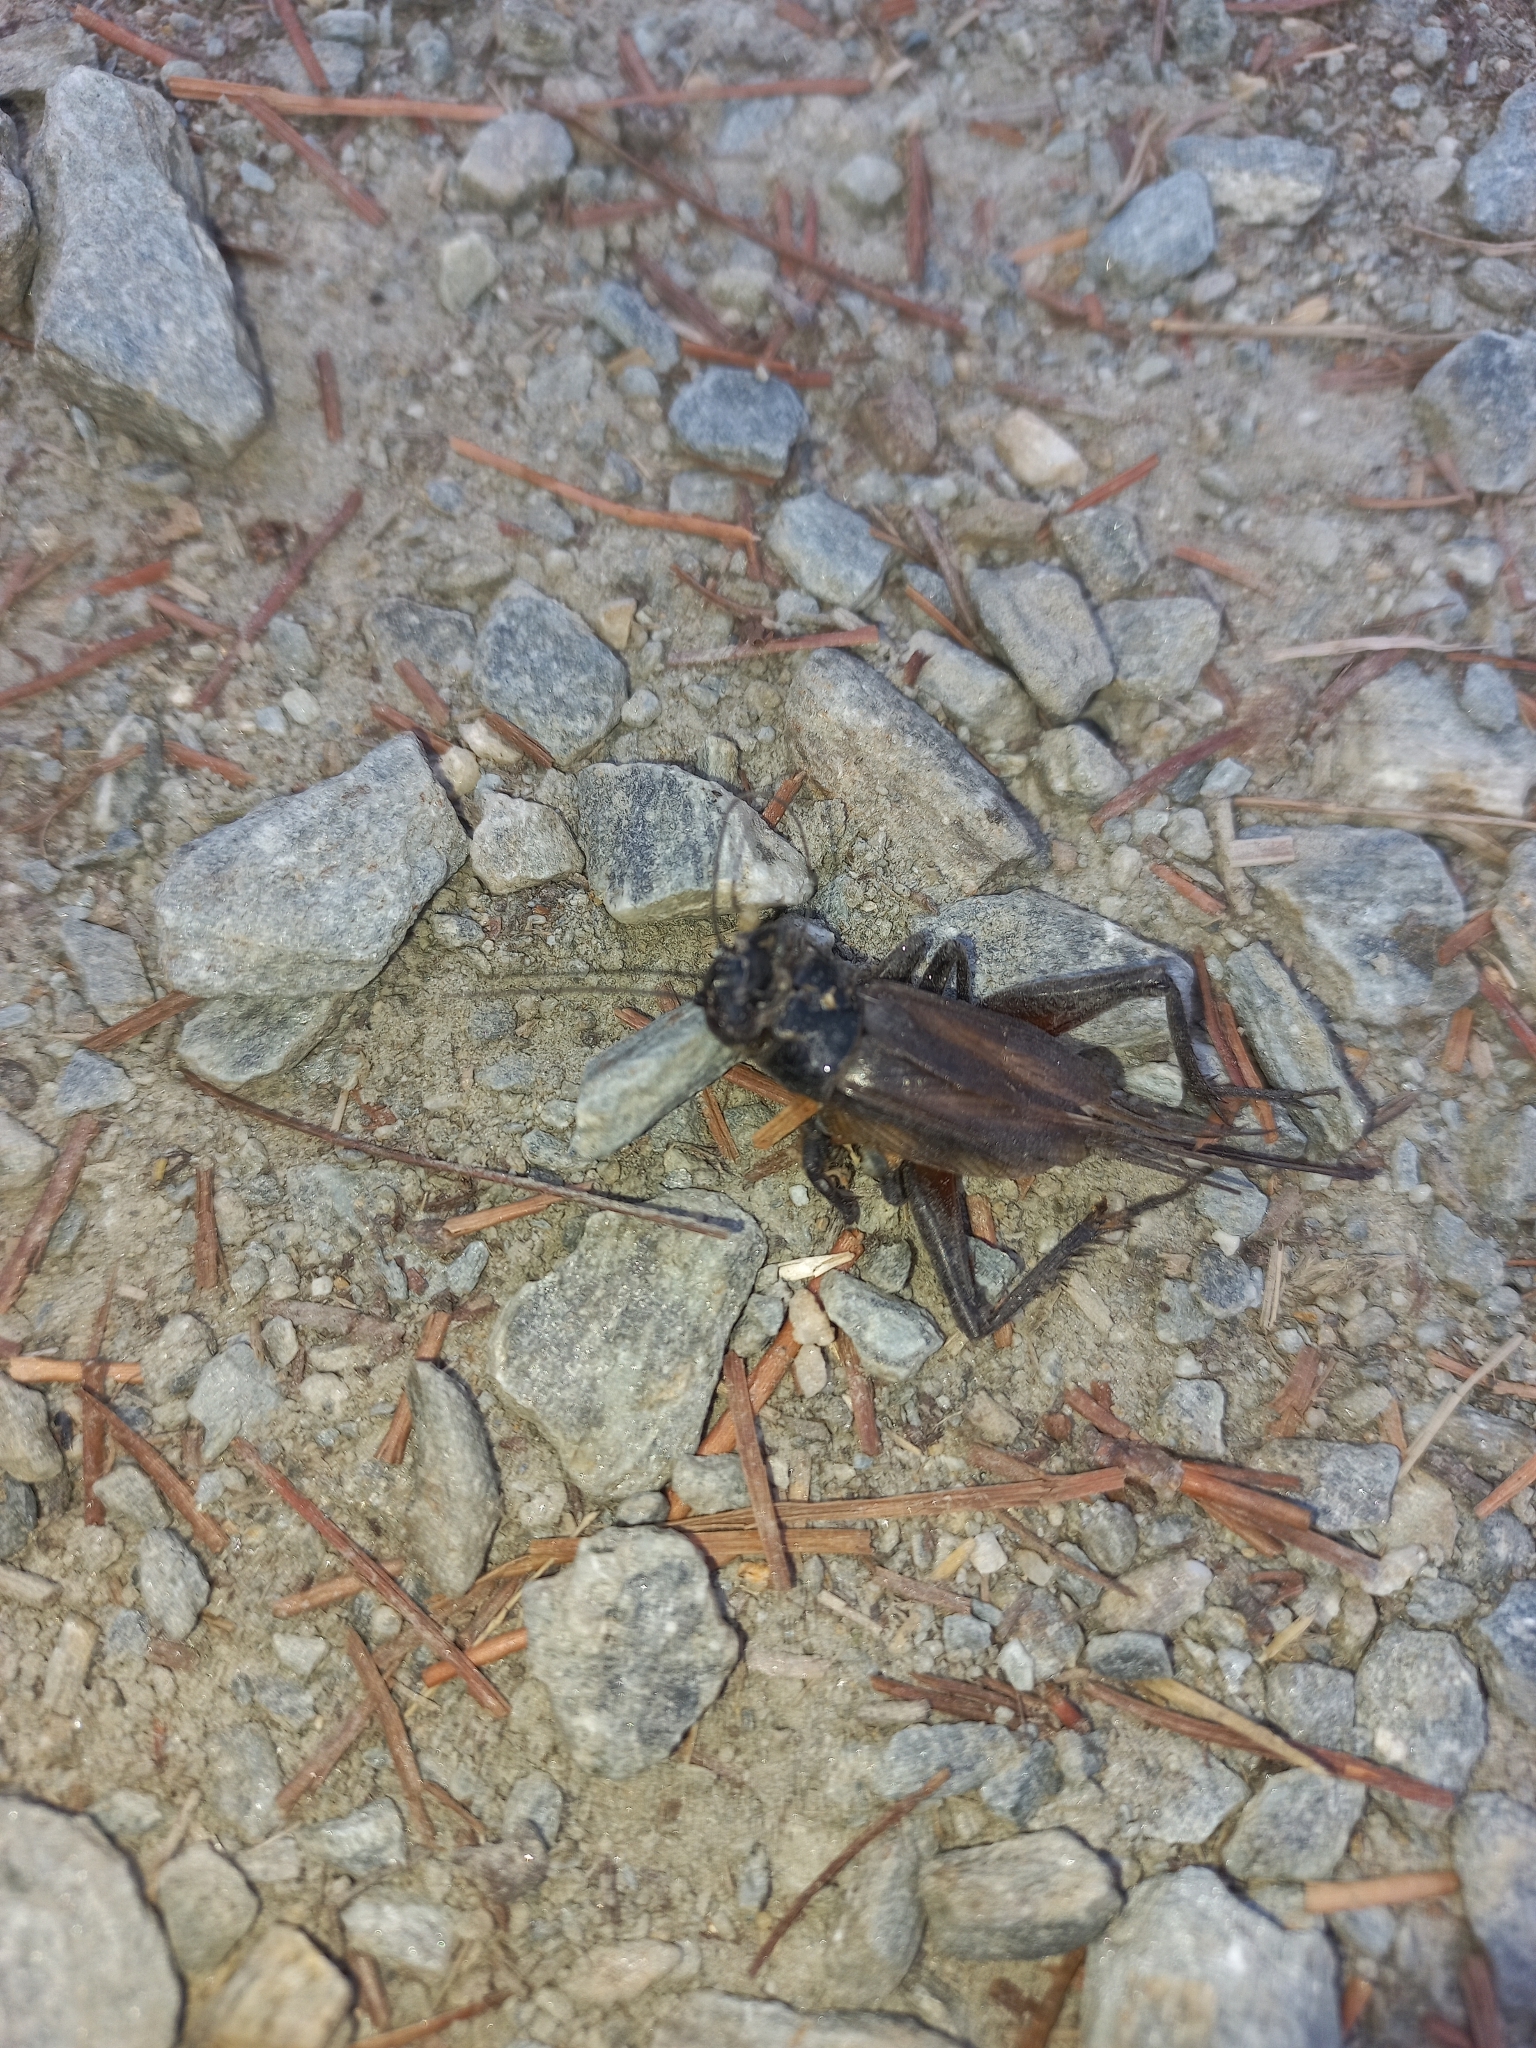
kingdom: Animalia
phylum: Arthropoda
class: Insecta
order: Orthoptera
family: Gryllidae
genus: Teleogryllus
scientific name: Teleogryllus commodus
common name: Black field cricket
